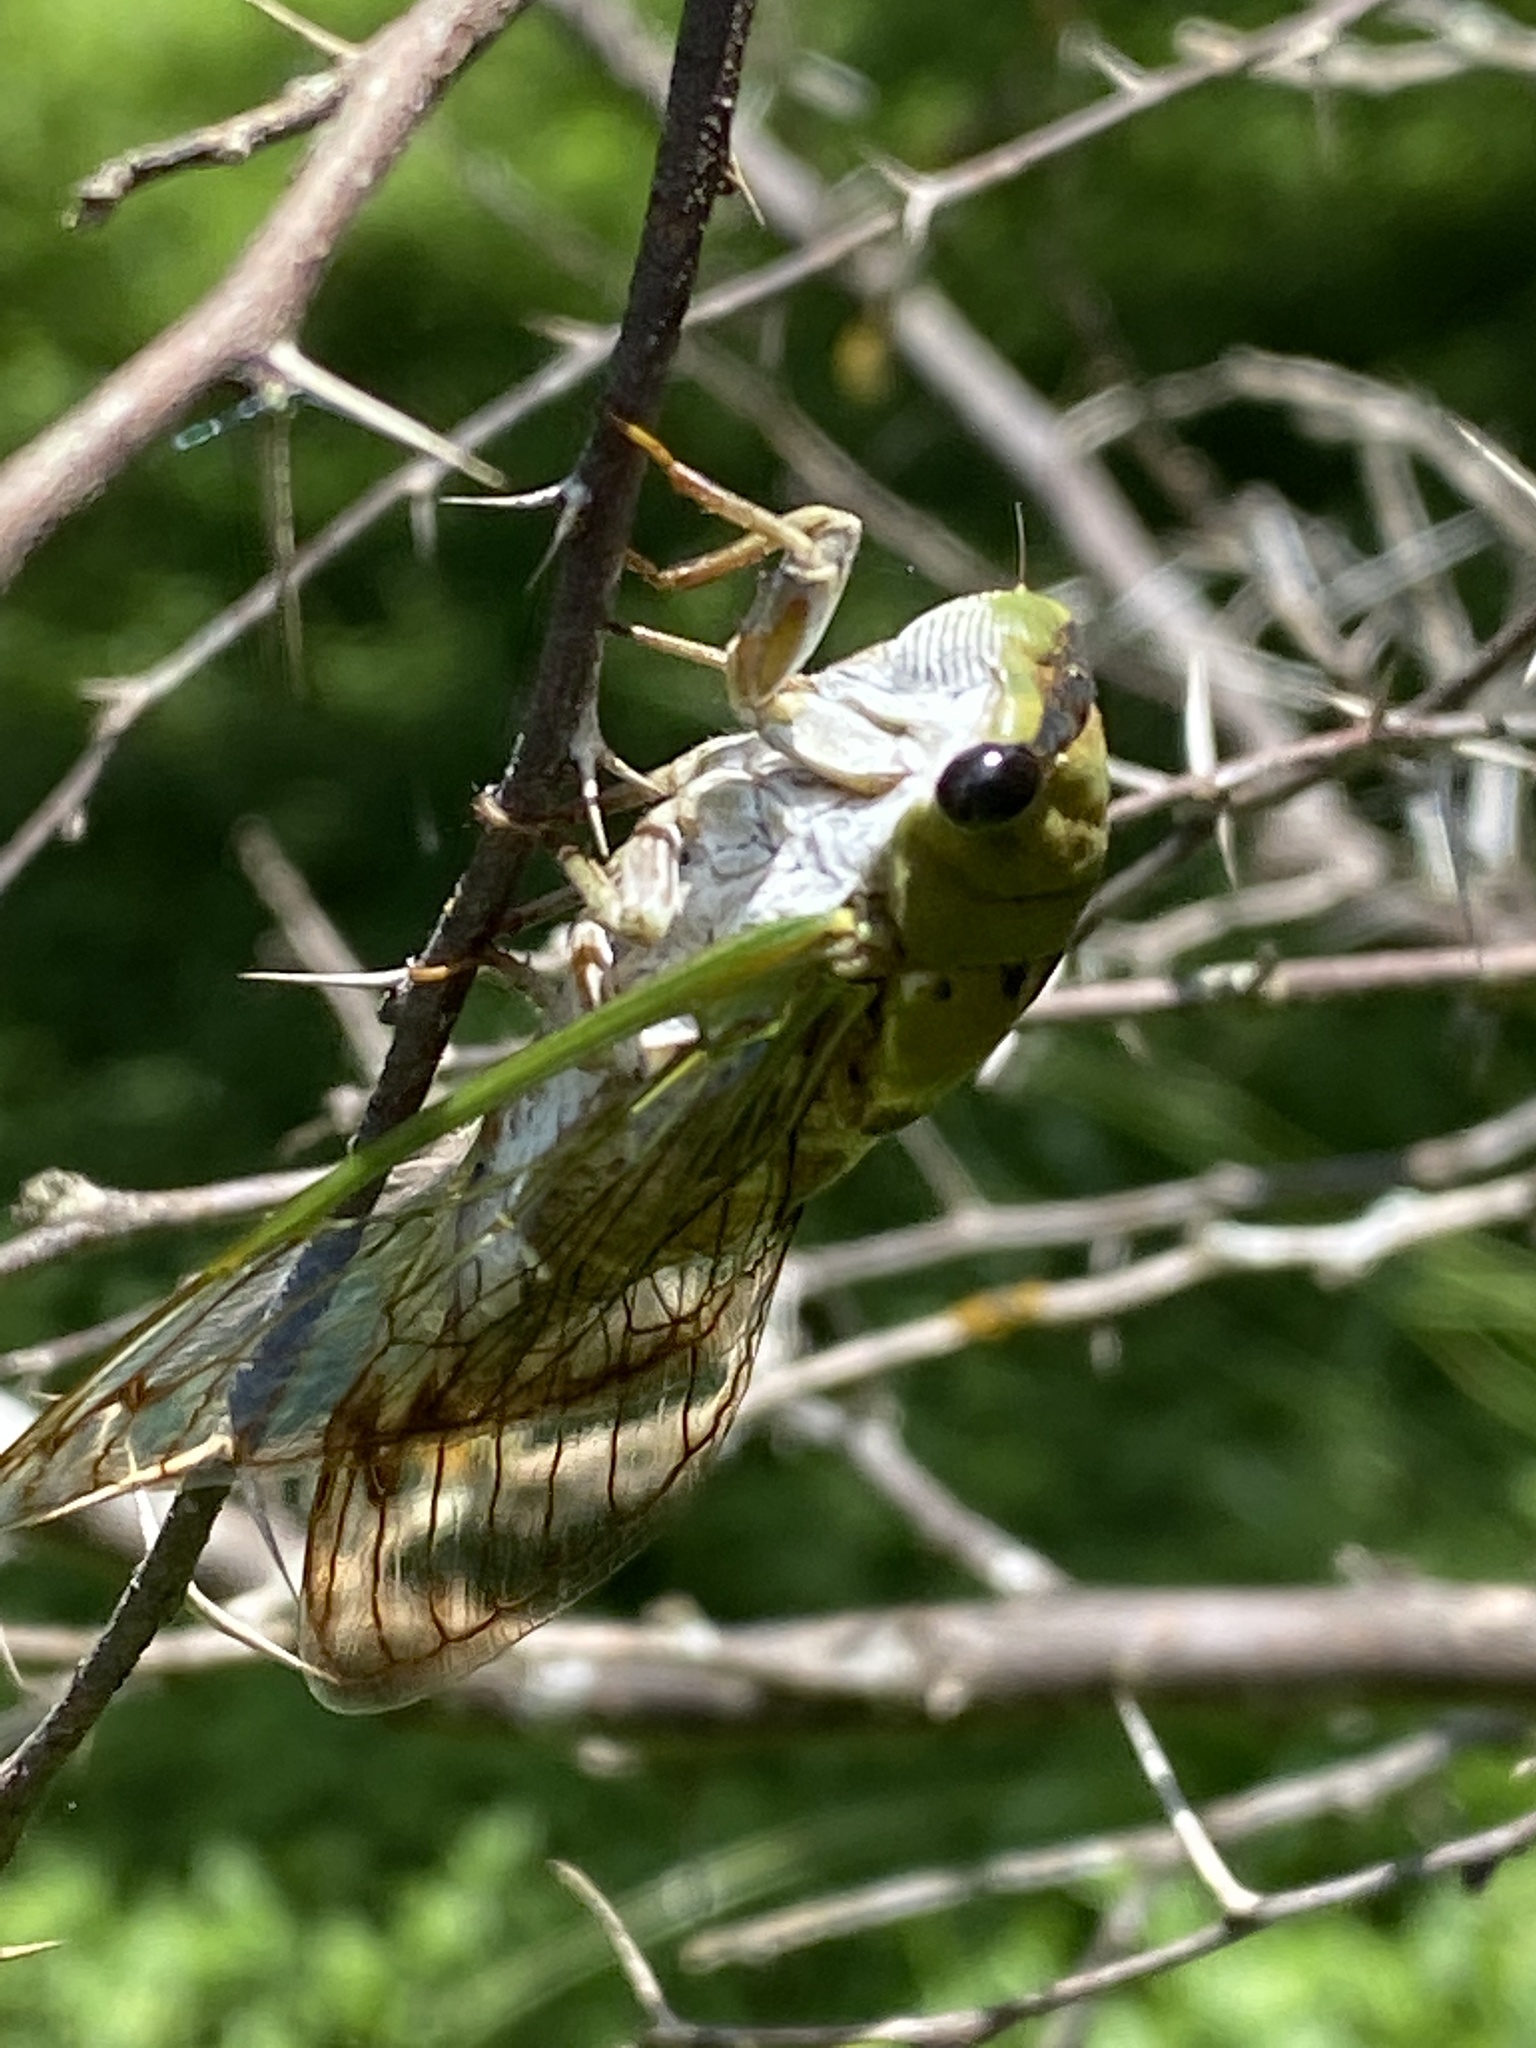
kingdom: Animalia
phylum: Arthropoda
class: Insecta
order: Hemiptera
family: Cicadidae
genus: Neotibicen
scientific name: Neotibicen superbus
